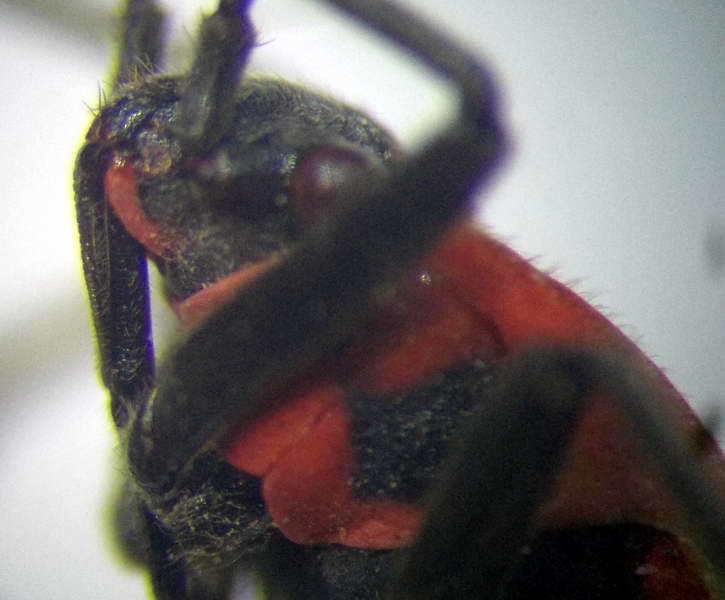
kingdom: Animalia
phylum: Arthropoda
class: Insecta
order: Hemiptera
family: Lygaeidae
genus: Tropidothorax
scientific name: Tropidothorax leucopterus
